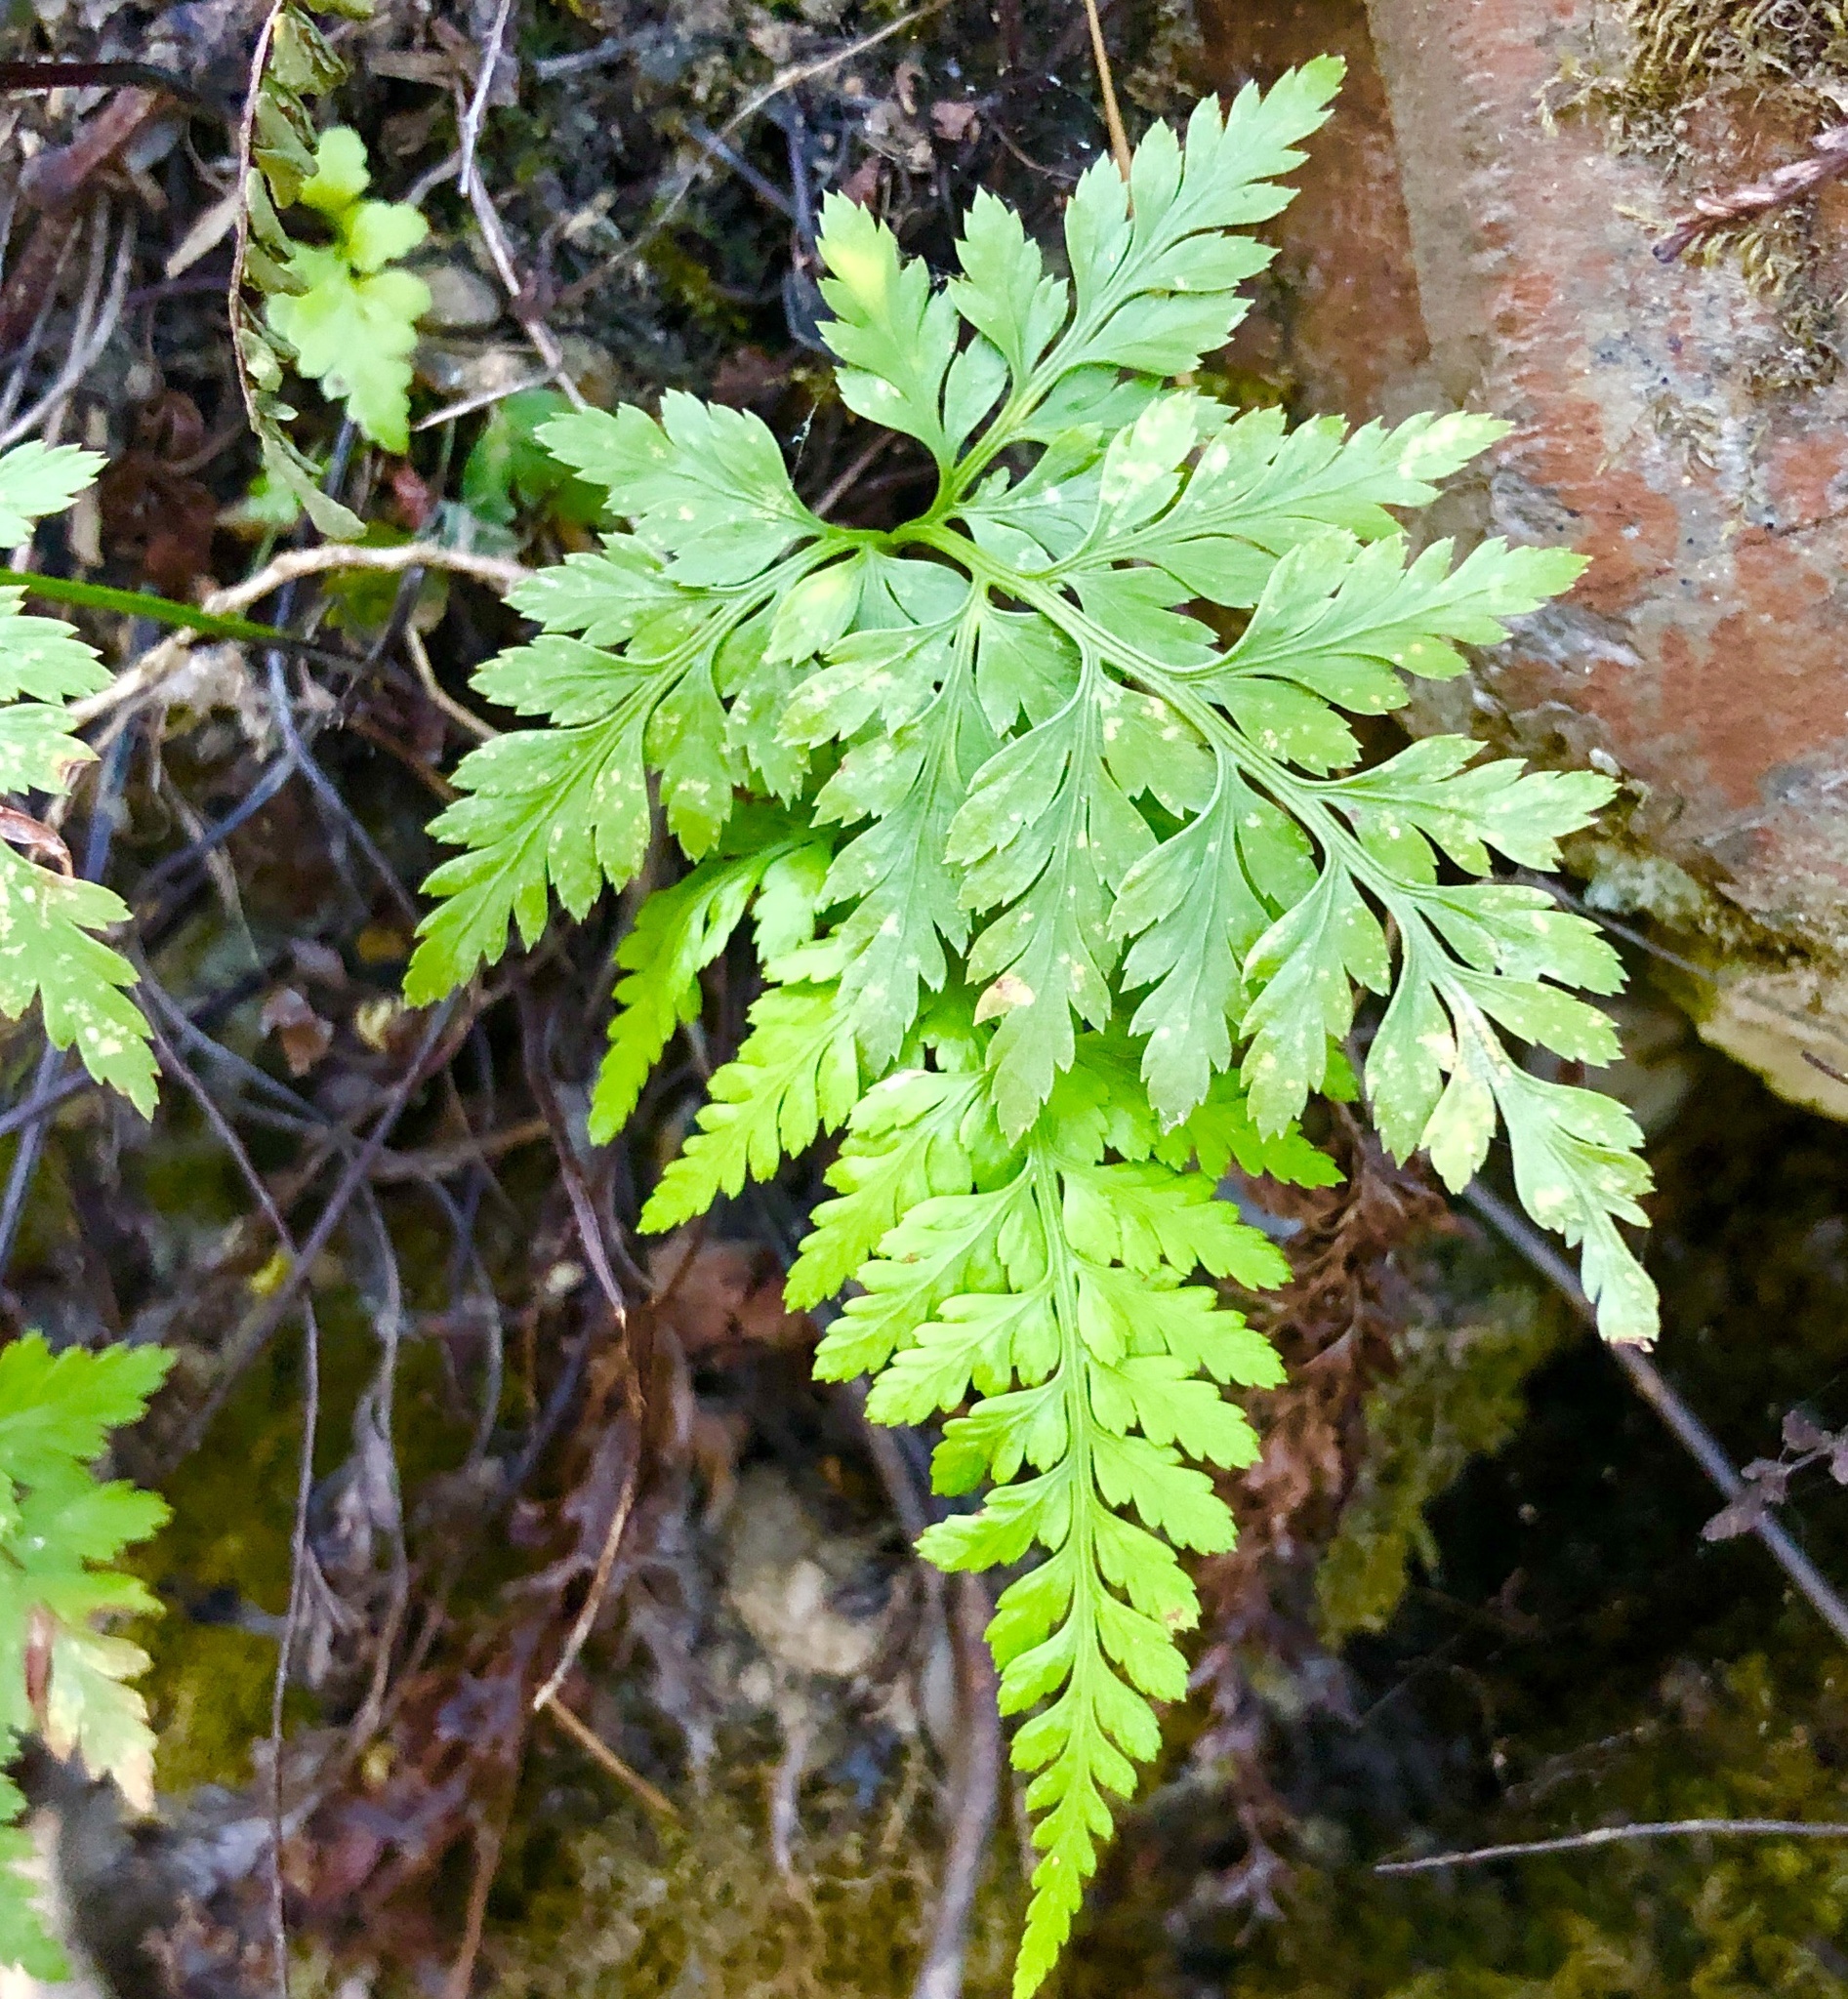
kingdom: Plantae
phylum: Tracheophyta
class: Polypodiopsida
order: Polypodiales
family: Aspleniaceae
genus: Asplenium
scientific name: Asplenium onopteris
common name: Irish spleenwort
